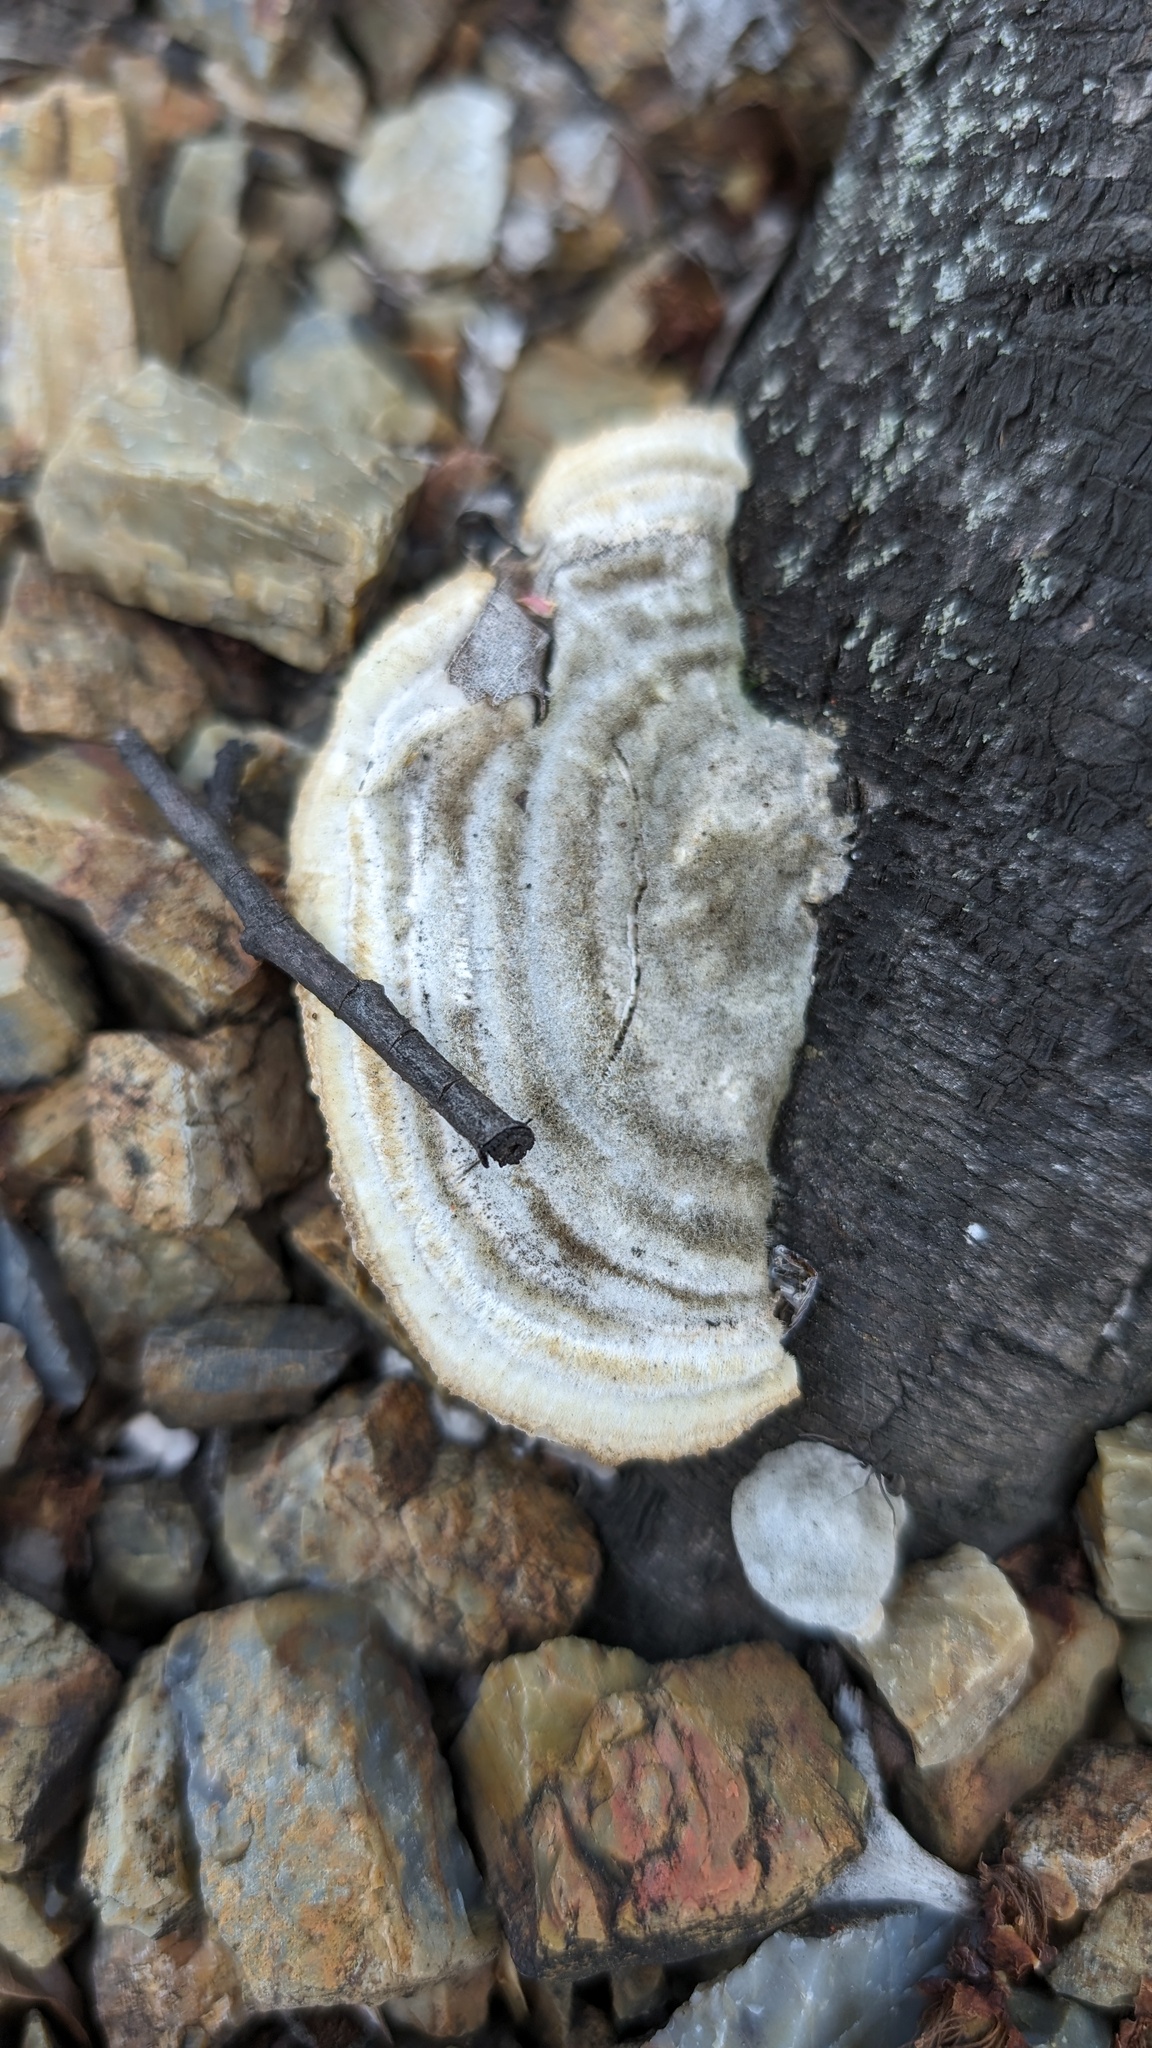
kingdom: Fungi
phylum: Basidiomycota
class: Agaricomycetes
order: Polyporales
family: Polyporaceae
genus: Trametes
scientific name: Trametes hirsuta
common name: Hairy bracket
